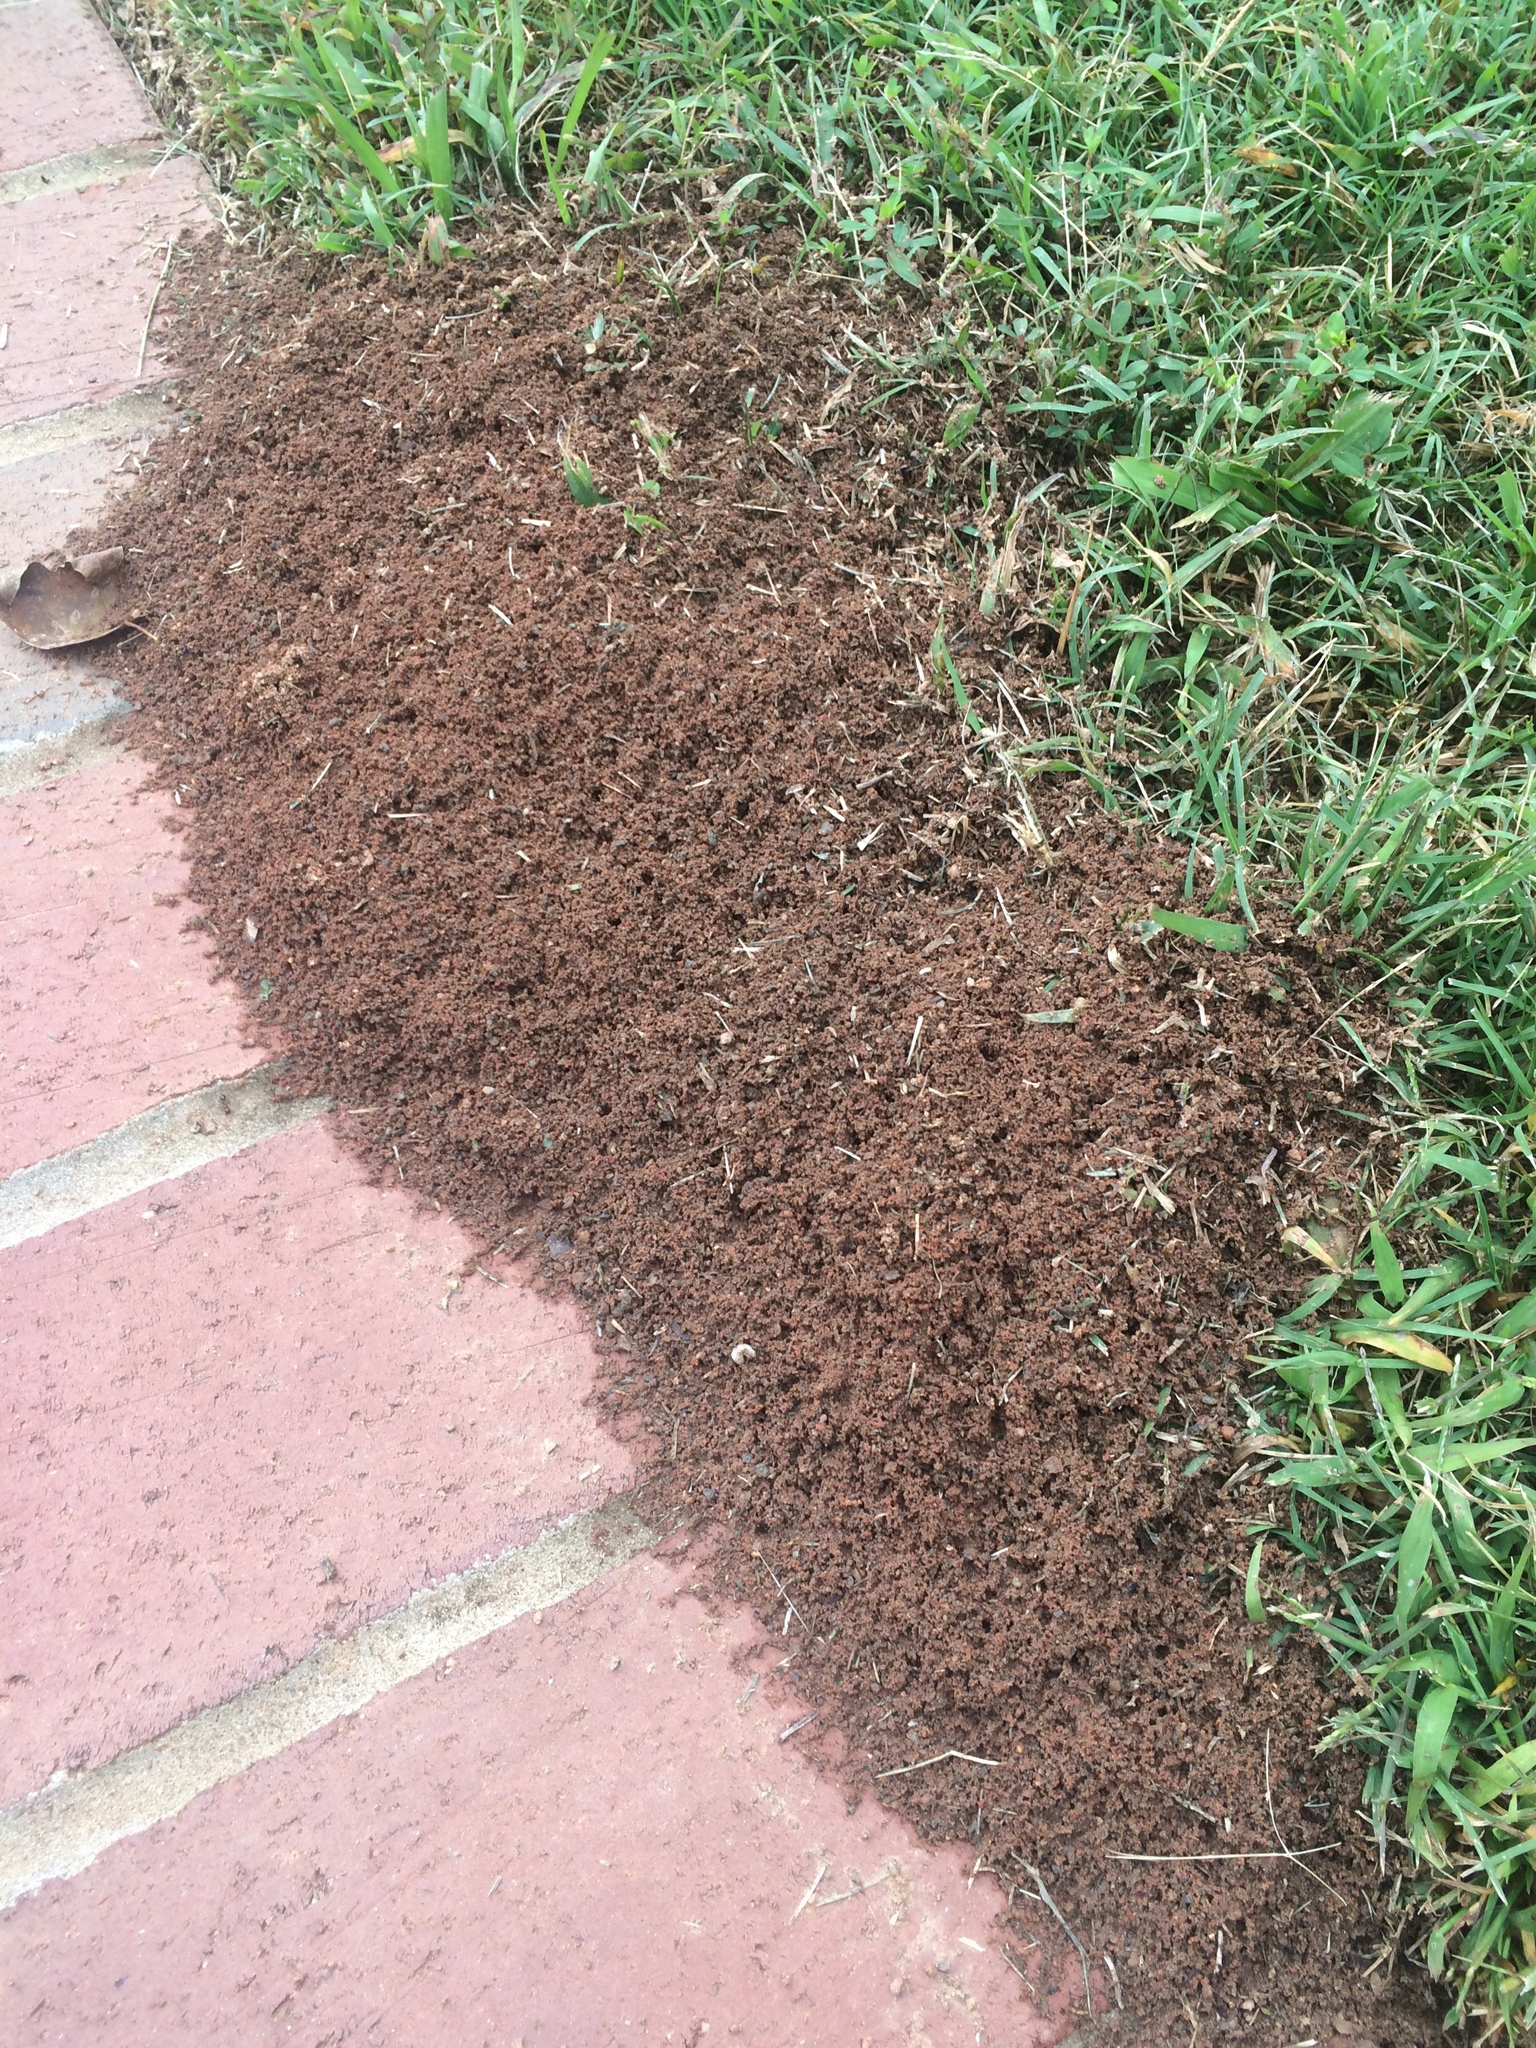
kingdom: Animalia
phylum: Arthropoda
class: Insecta
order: Hymenoptera
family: Formicidae
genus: Solenopsis
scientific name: Solenopsis invicta
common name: Red imported fire ant
